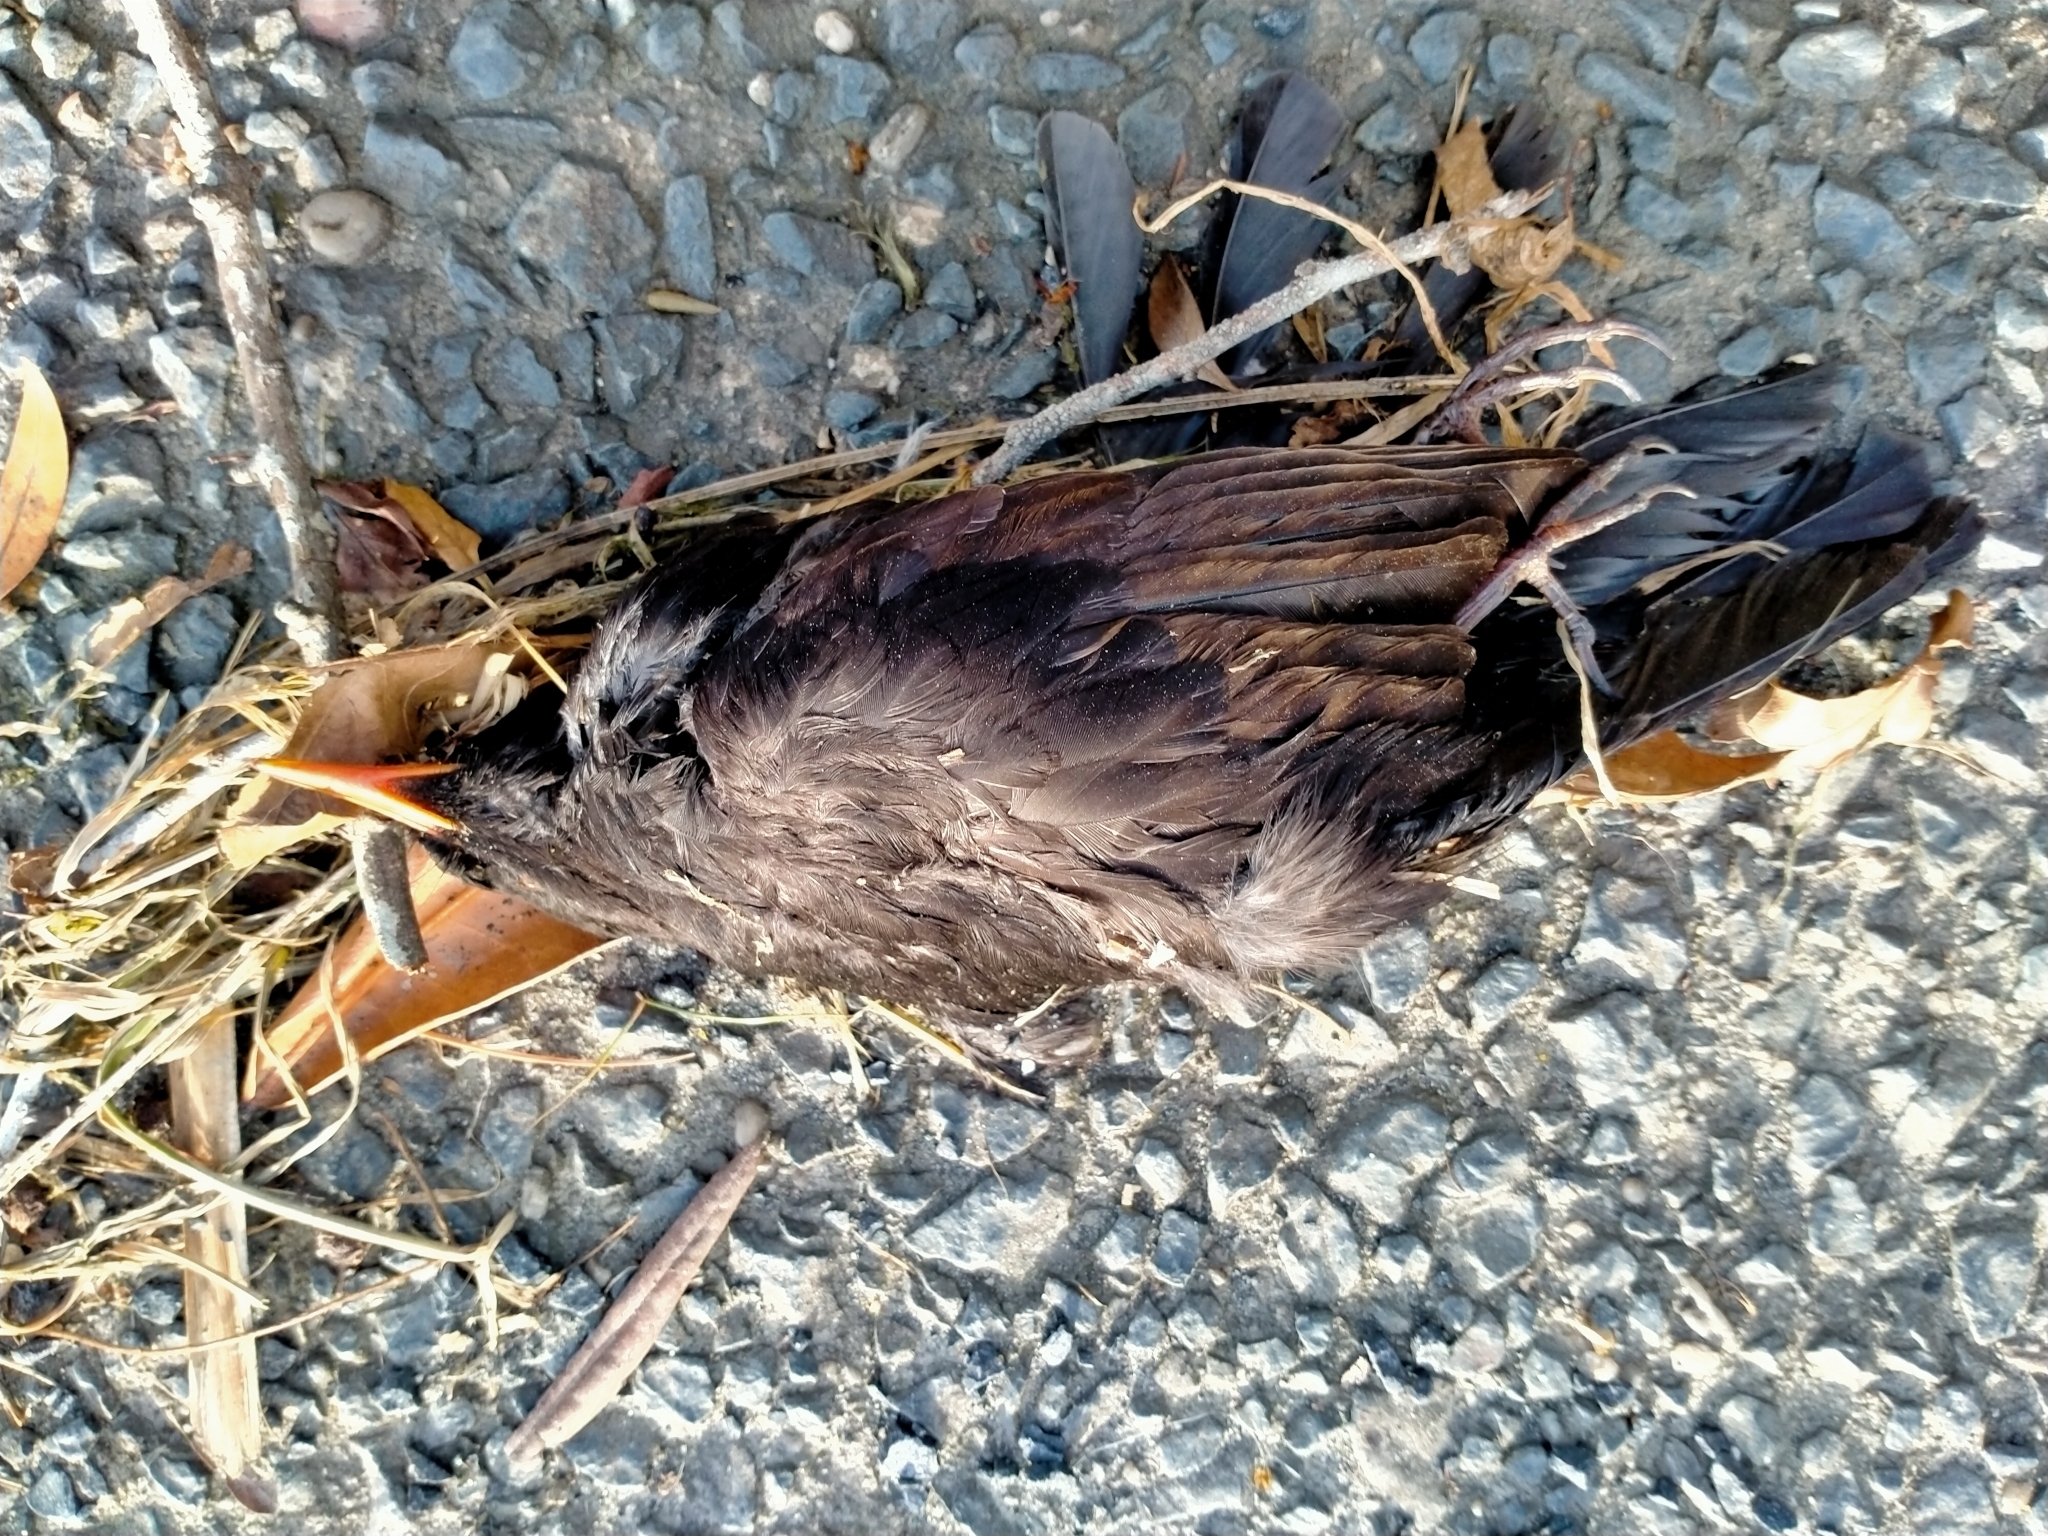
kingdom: Animalia
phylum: Chordata
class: Aves
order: Passeriformes
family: Turdidae
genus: Turdus
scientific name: Turdus merula
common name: Common blackbird
